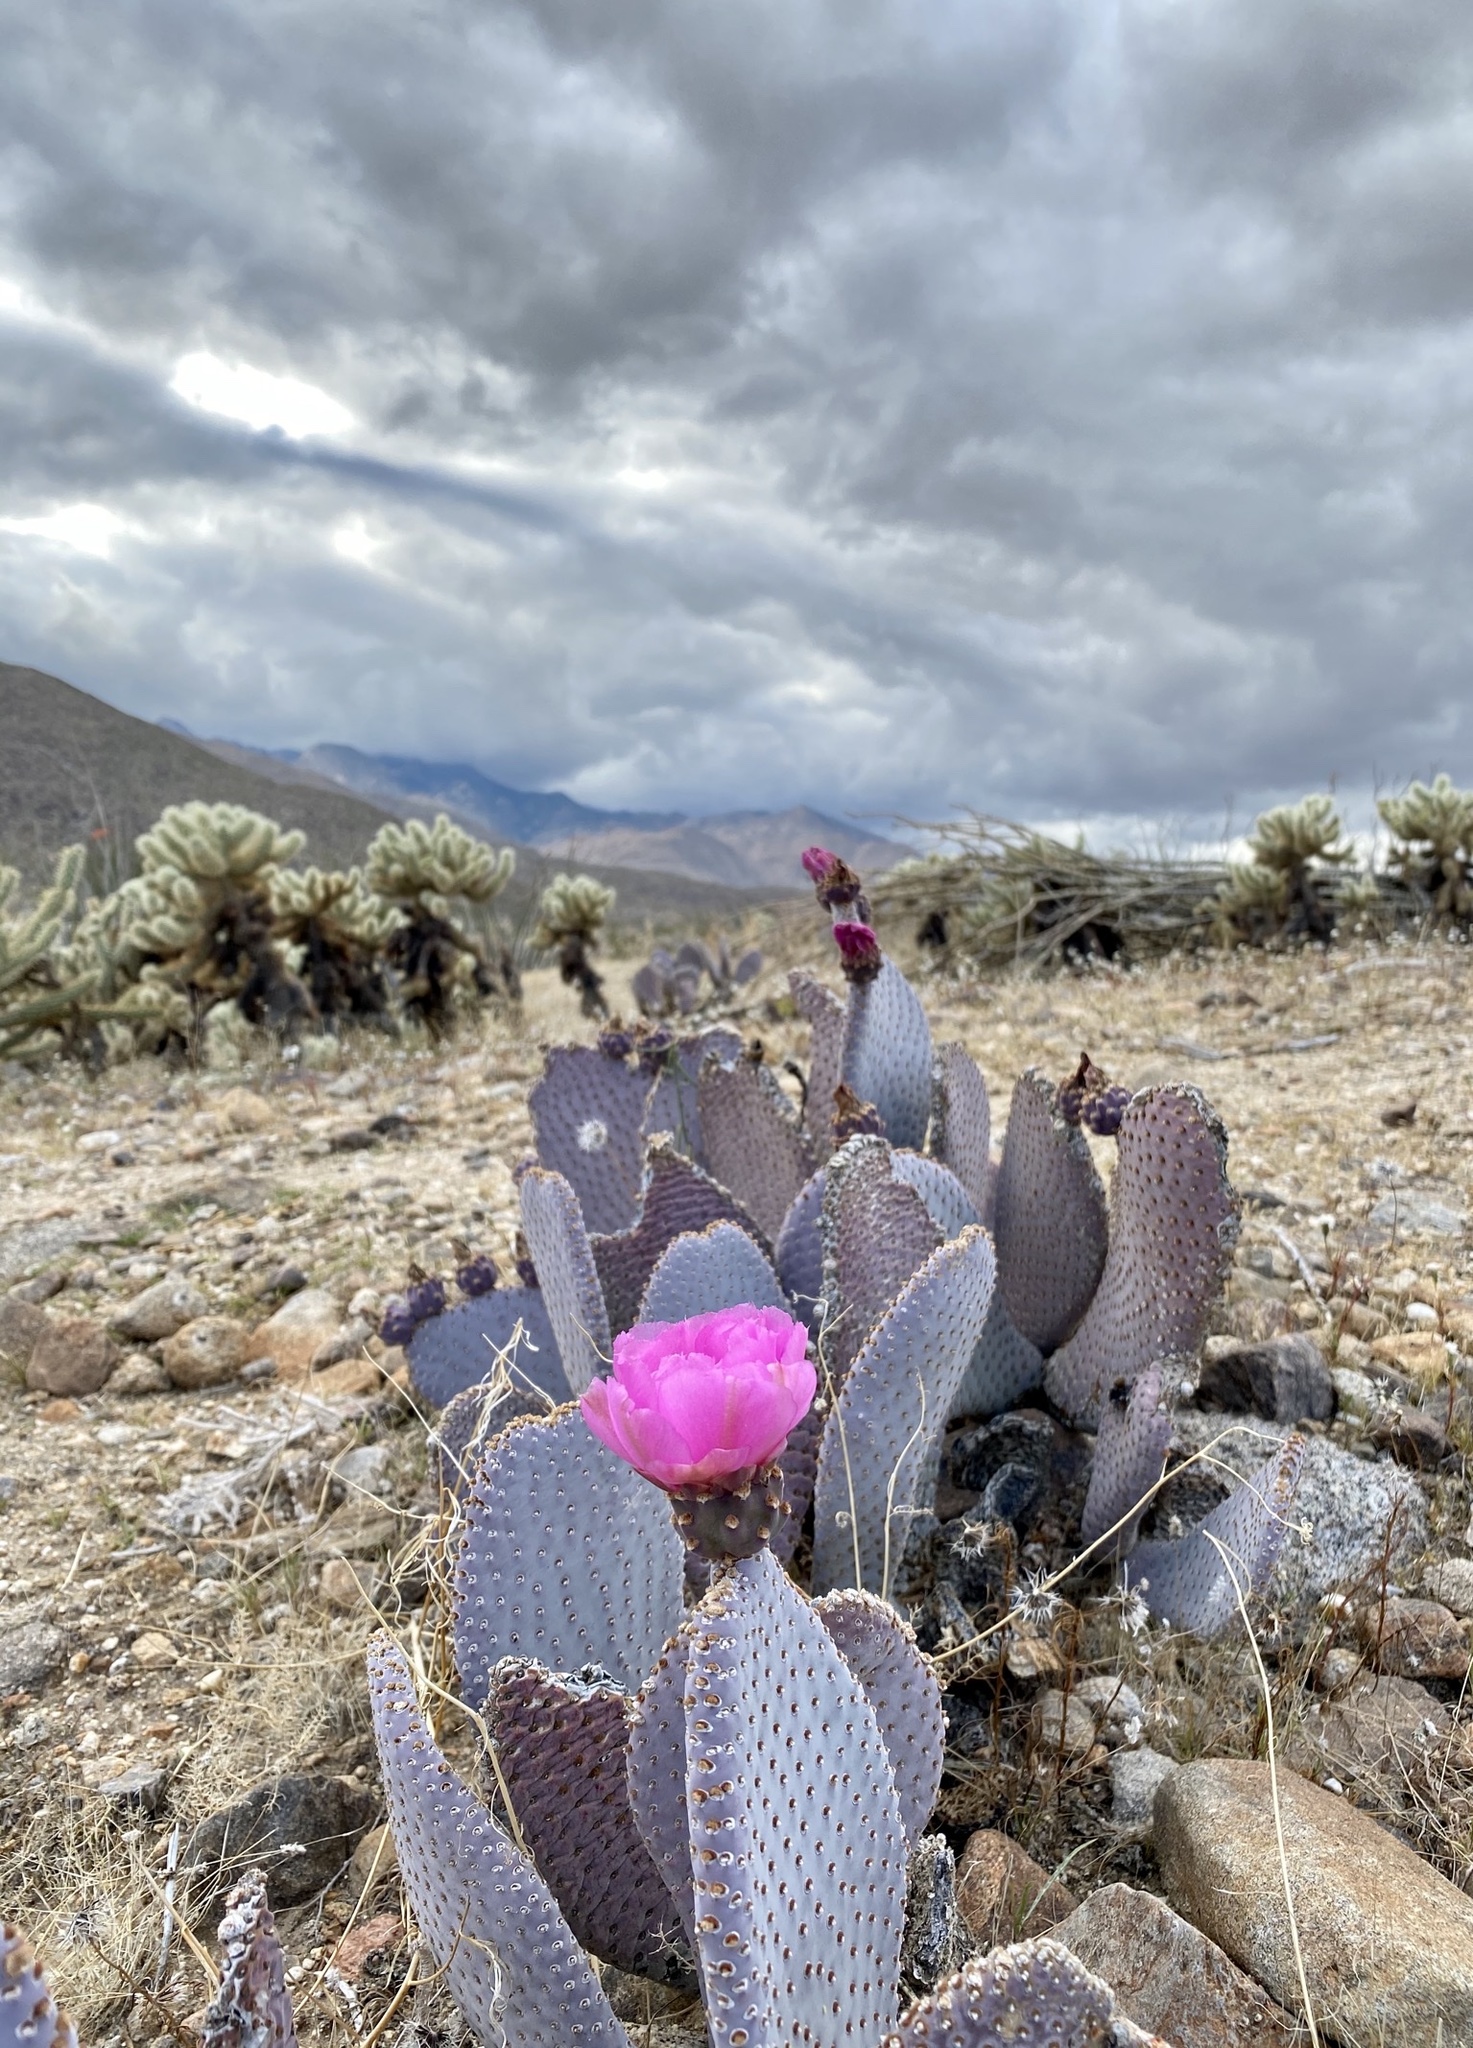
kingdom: Plantae
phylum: Tracheophyta
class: Magnoliopsida
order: Caryophyllales
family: Cactaceae
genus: Opuntia
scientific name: Opuntia basilaris
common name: Beavertail prickly-pear
